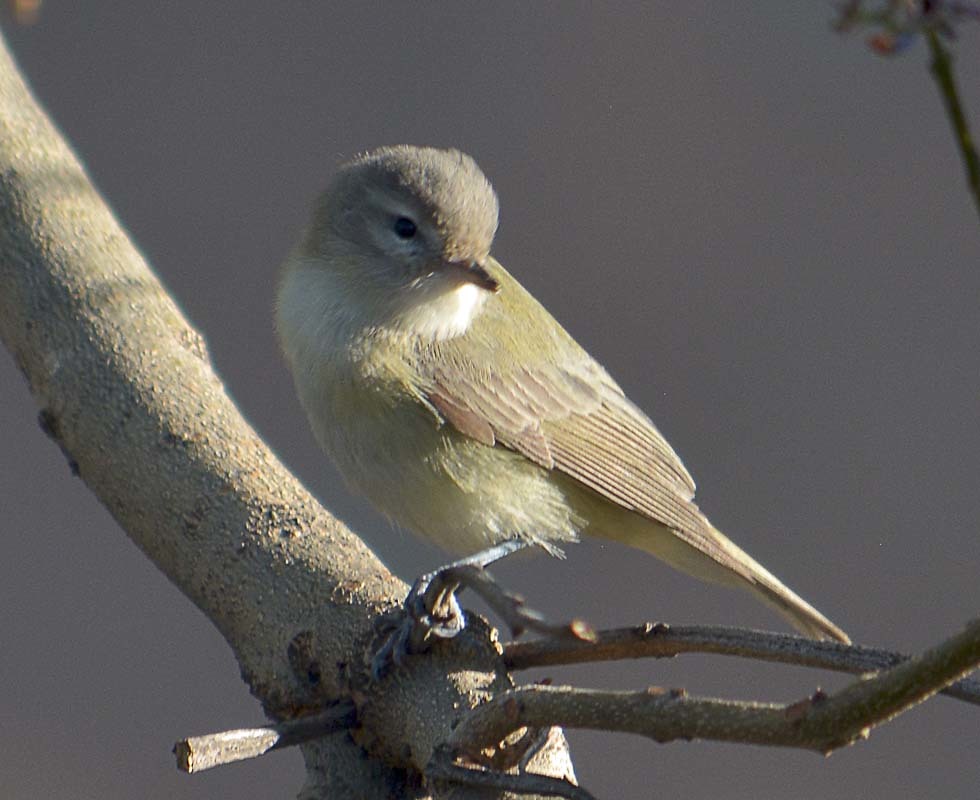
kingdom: Animalia
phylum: Chordata
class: Aves
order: Passeriformes
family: Vireonidae
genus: Vireo
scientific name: Vireo gilvus
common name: Warbling vireo
